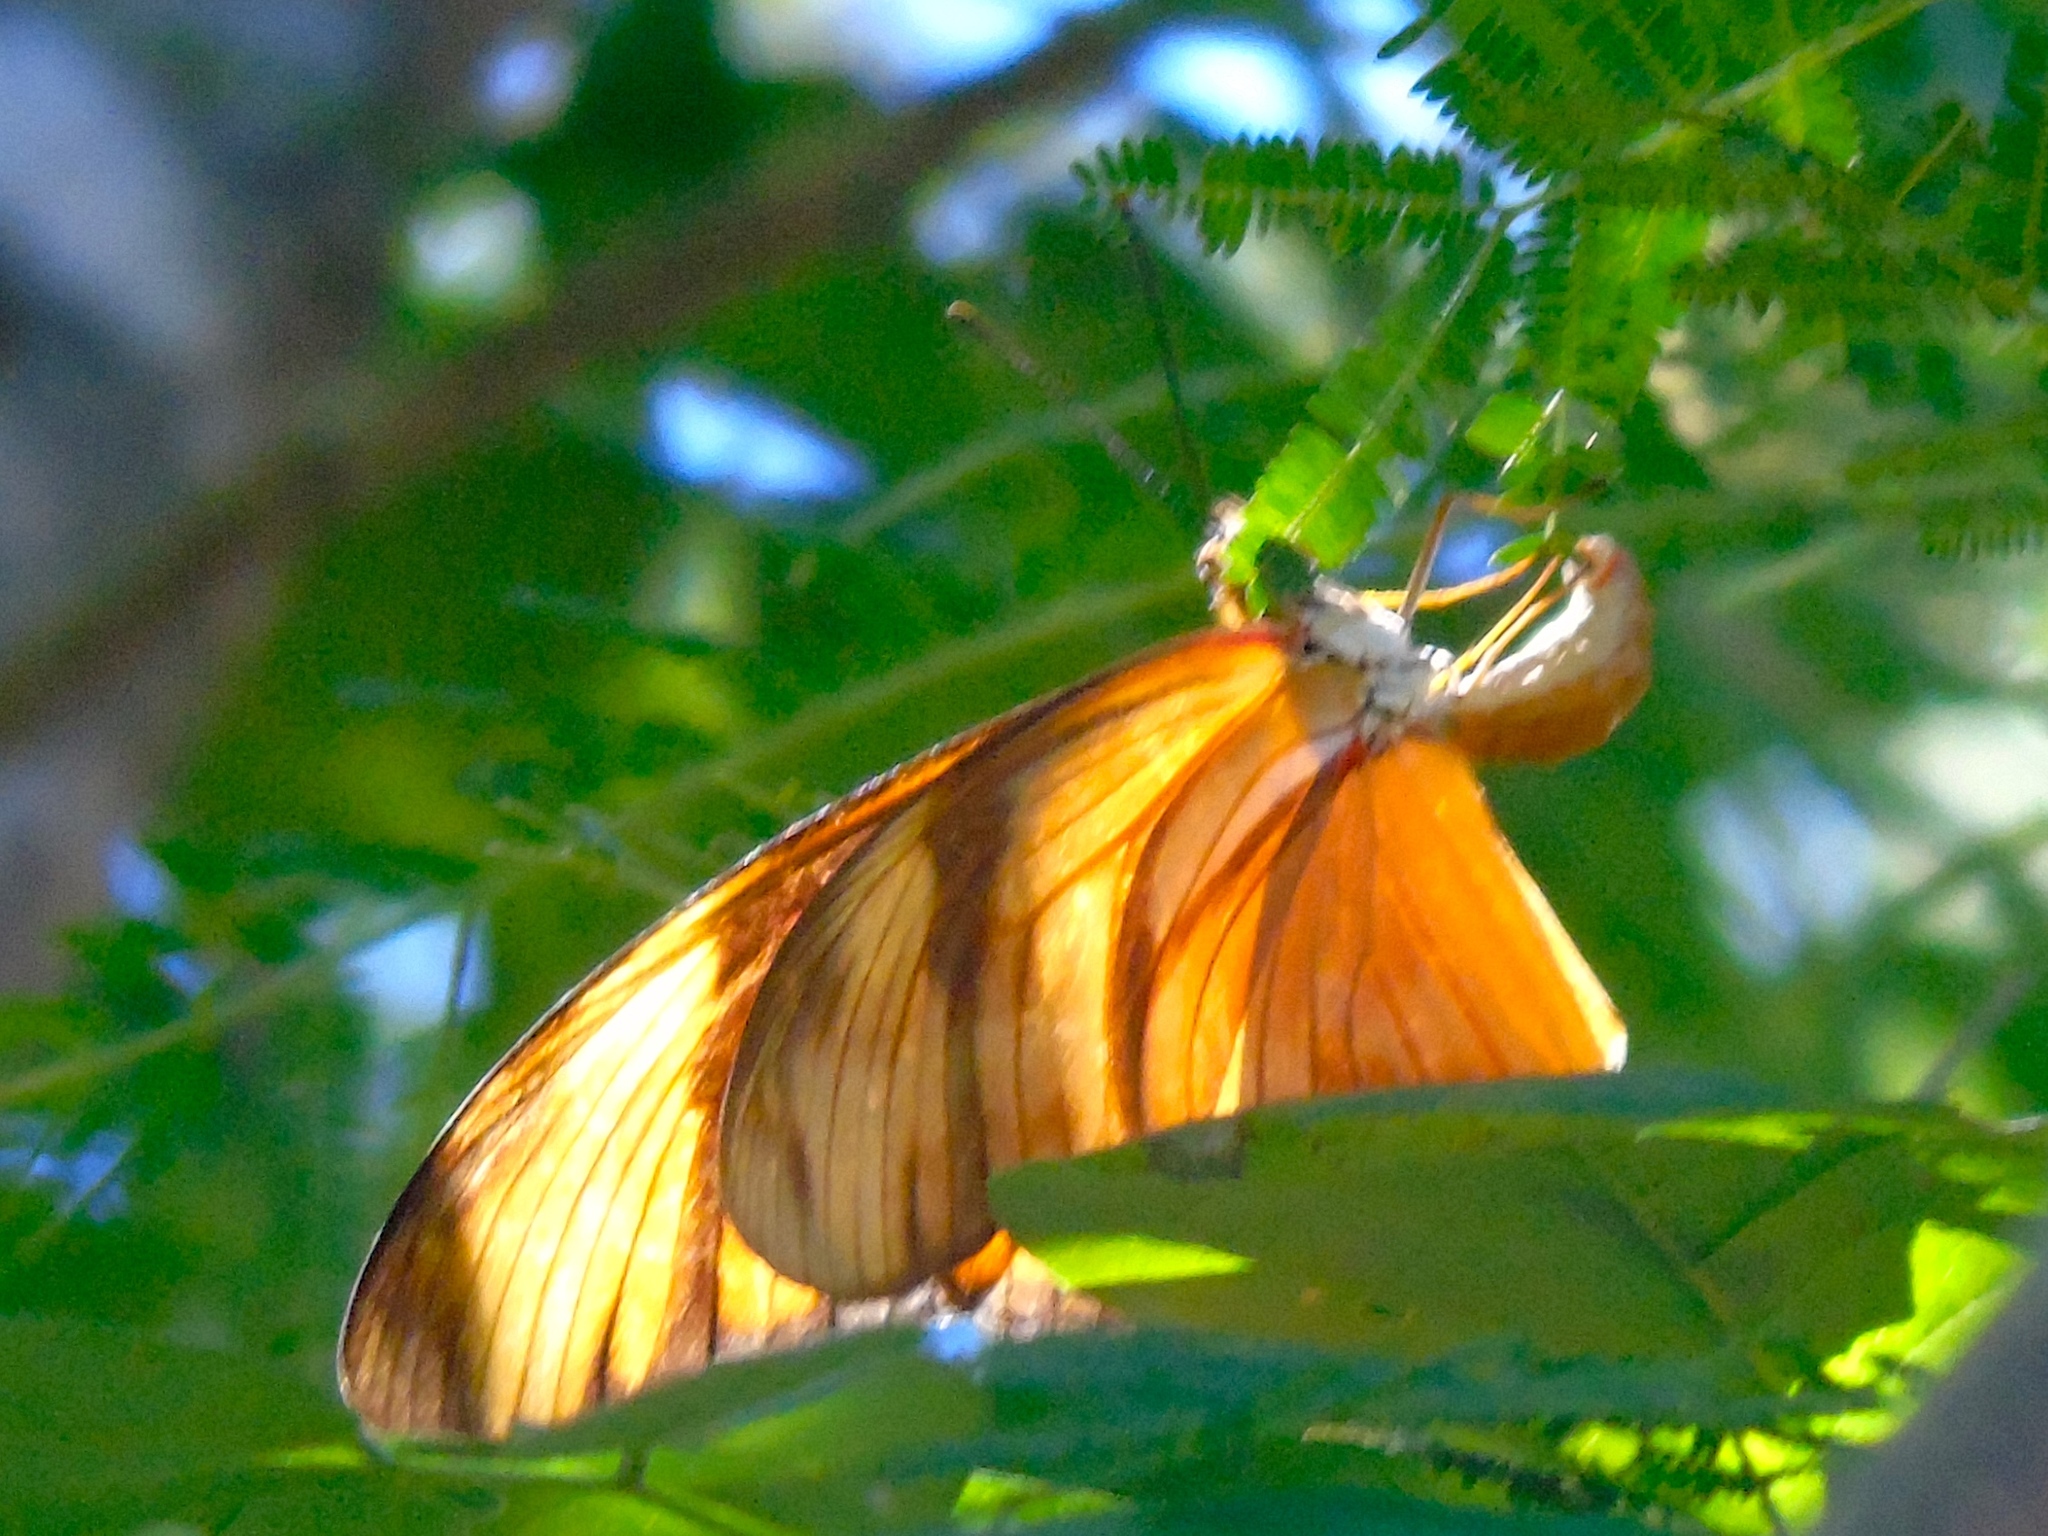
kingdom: Animalia
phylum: Arthropoda
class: Insecta
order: Lepidoptera
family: Nymphalidae
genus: Dryas
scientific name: Dryas iulia
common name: Flambeau
